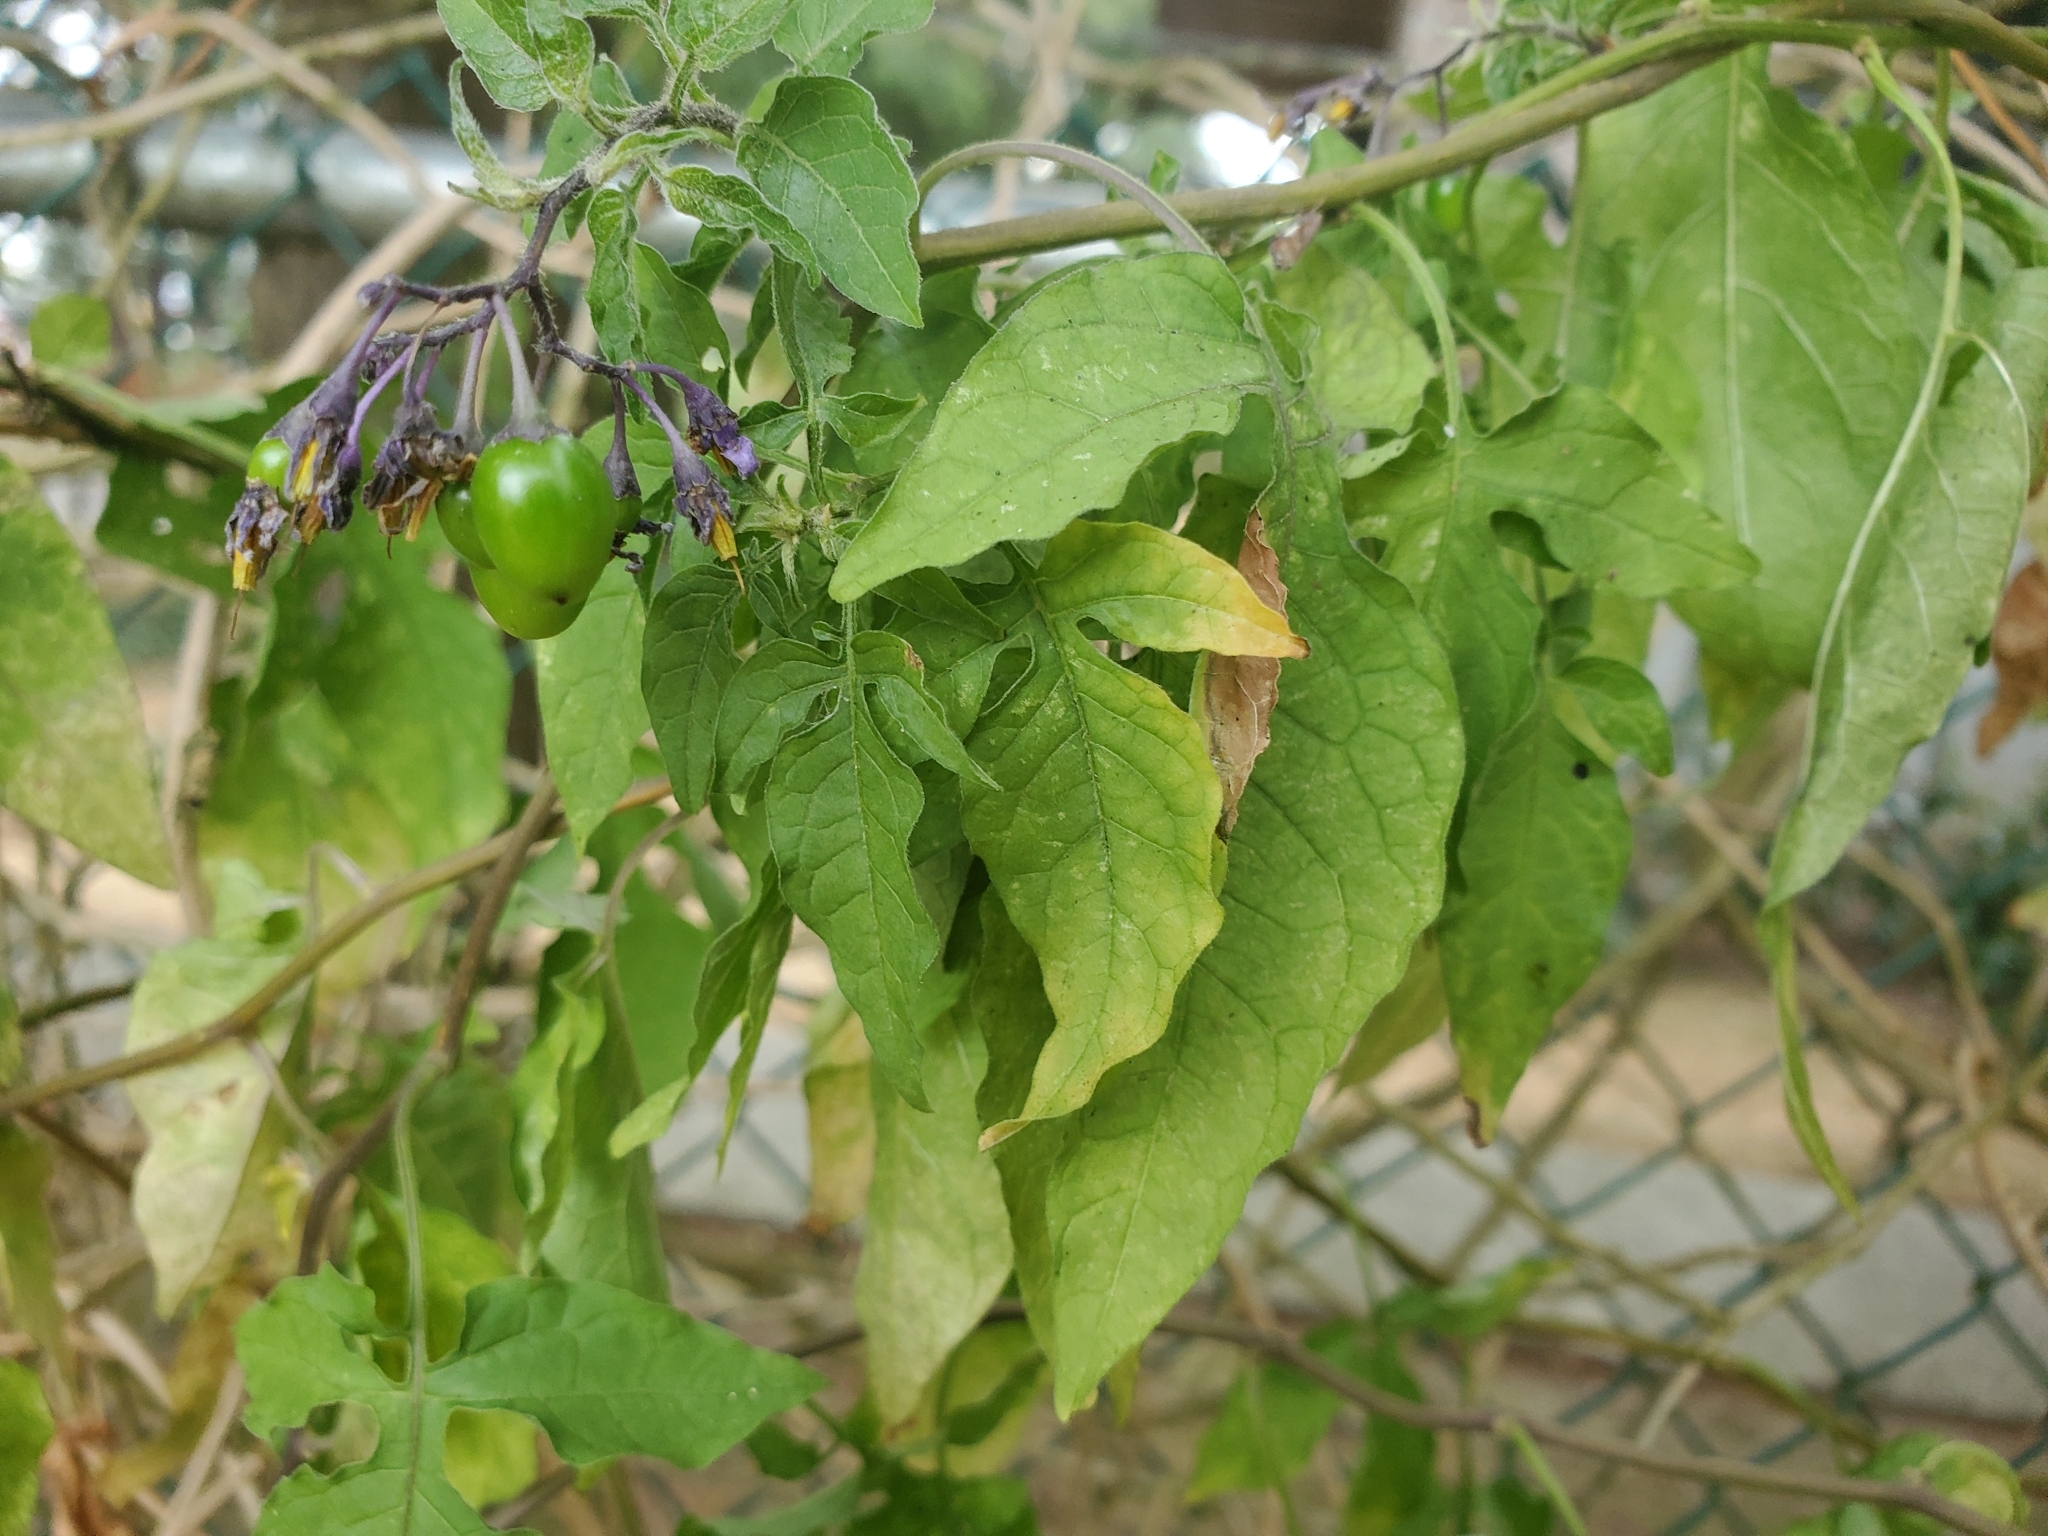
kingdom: Plantae
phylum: Tracheophyta
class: Magnoliopsida
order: Solanales
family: Solanaceae
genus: Solanum
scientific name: Solanum dulcamara
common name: Climbing nightshade
